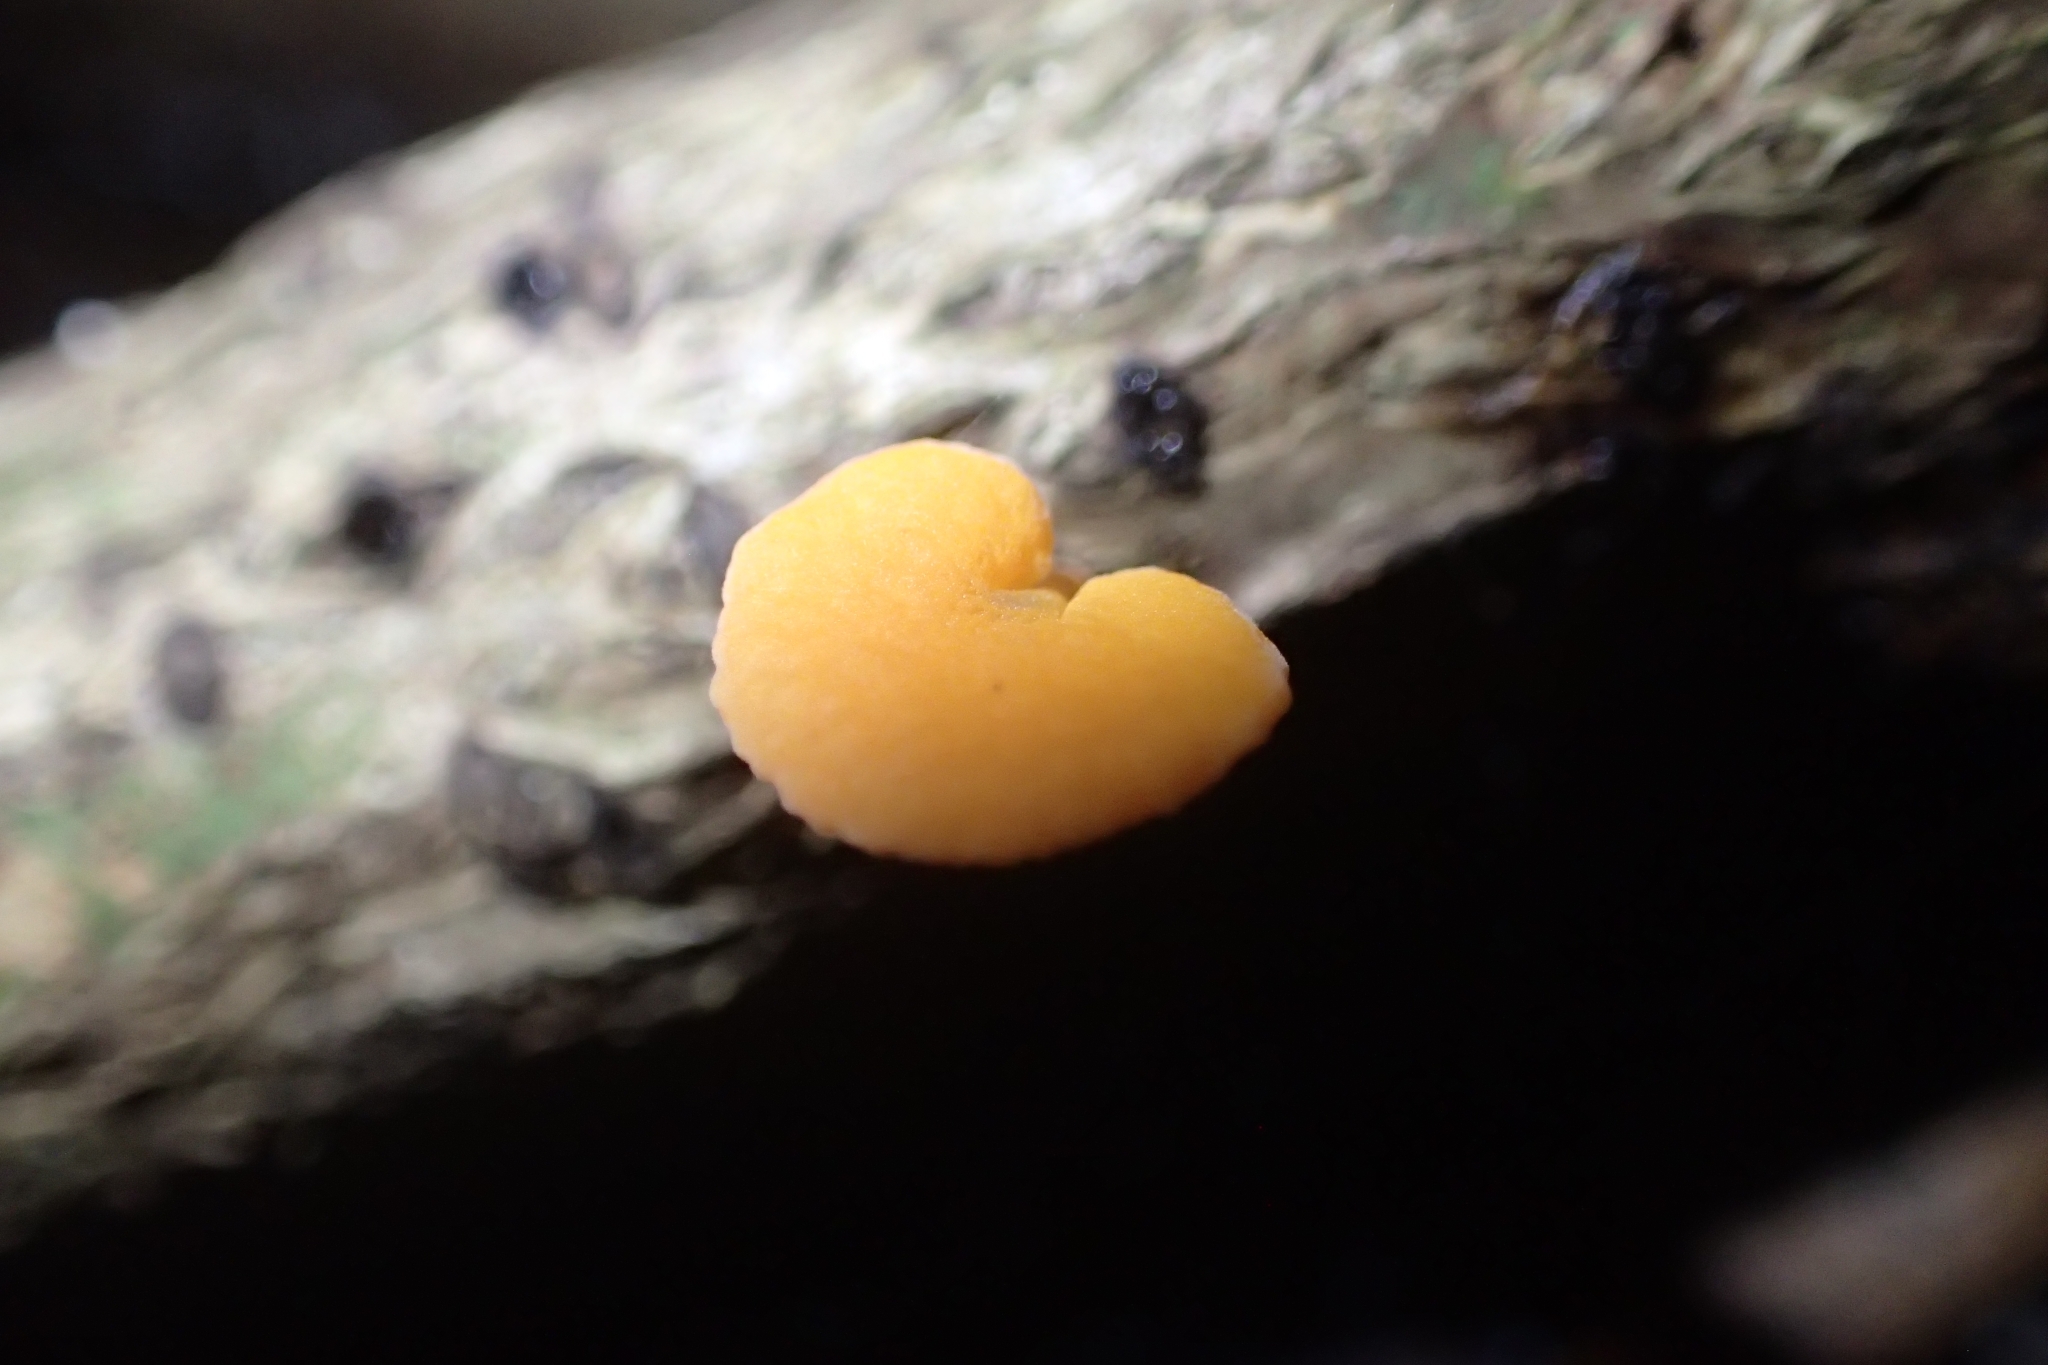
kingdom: Fungi
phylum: Basidiomycota
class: Agaricomycetes
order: Agaricales
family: Mycenaceae
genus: Favolaschia
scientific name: Favolaschia claudopus
